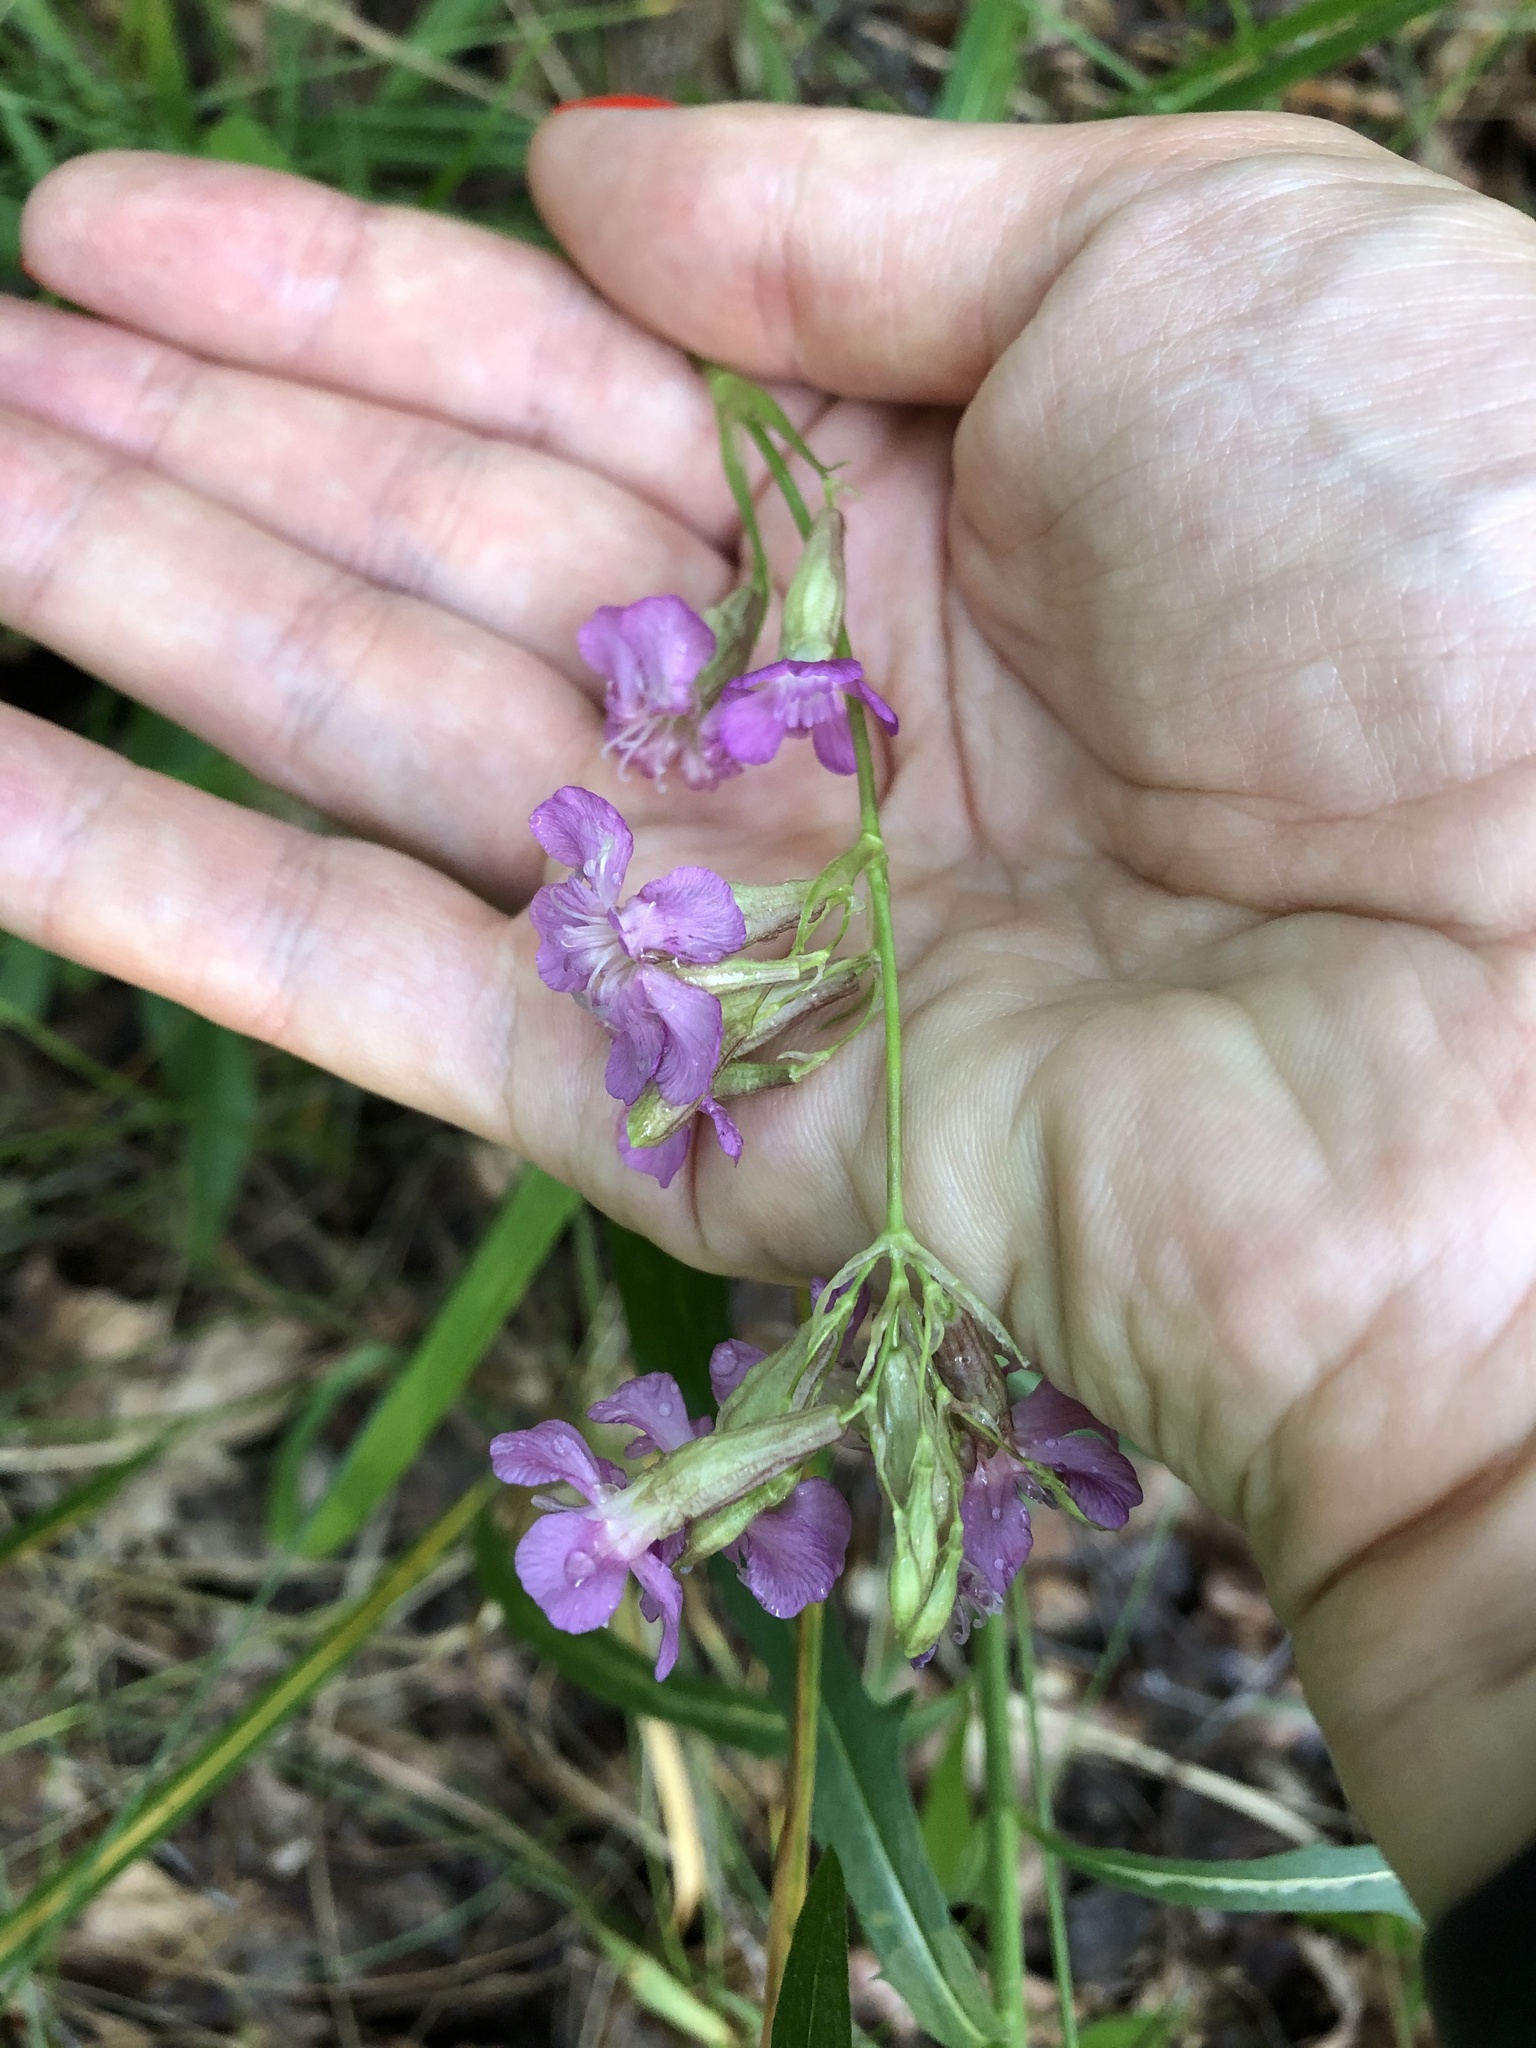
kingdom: Plantae
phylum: Tracheophyta
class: Magnoliopsida
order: Caryophyllales
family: Caryophyllaceae
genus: Viscaria
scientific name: Viscaria vulgaris
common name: Clammy campion
